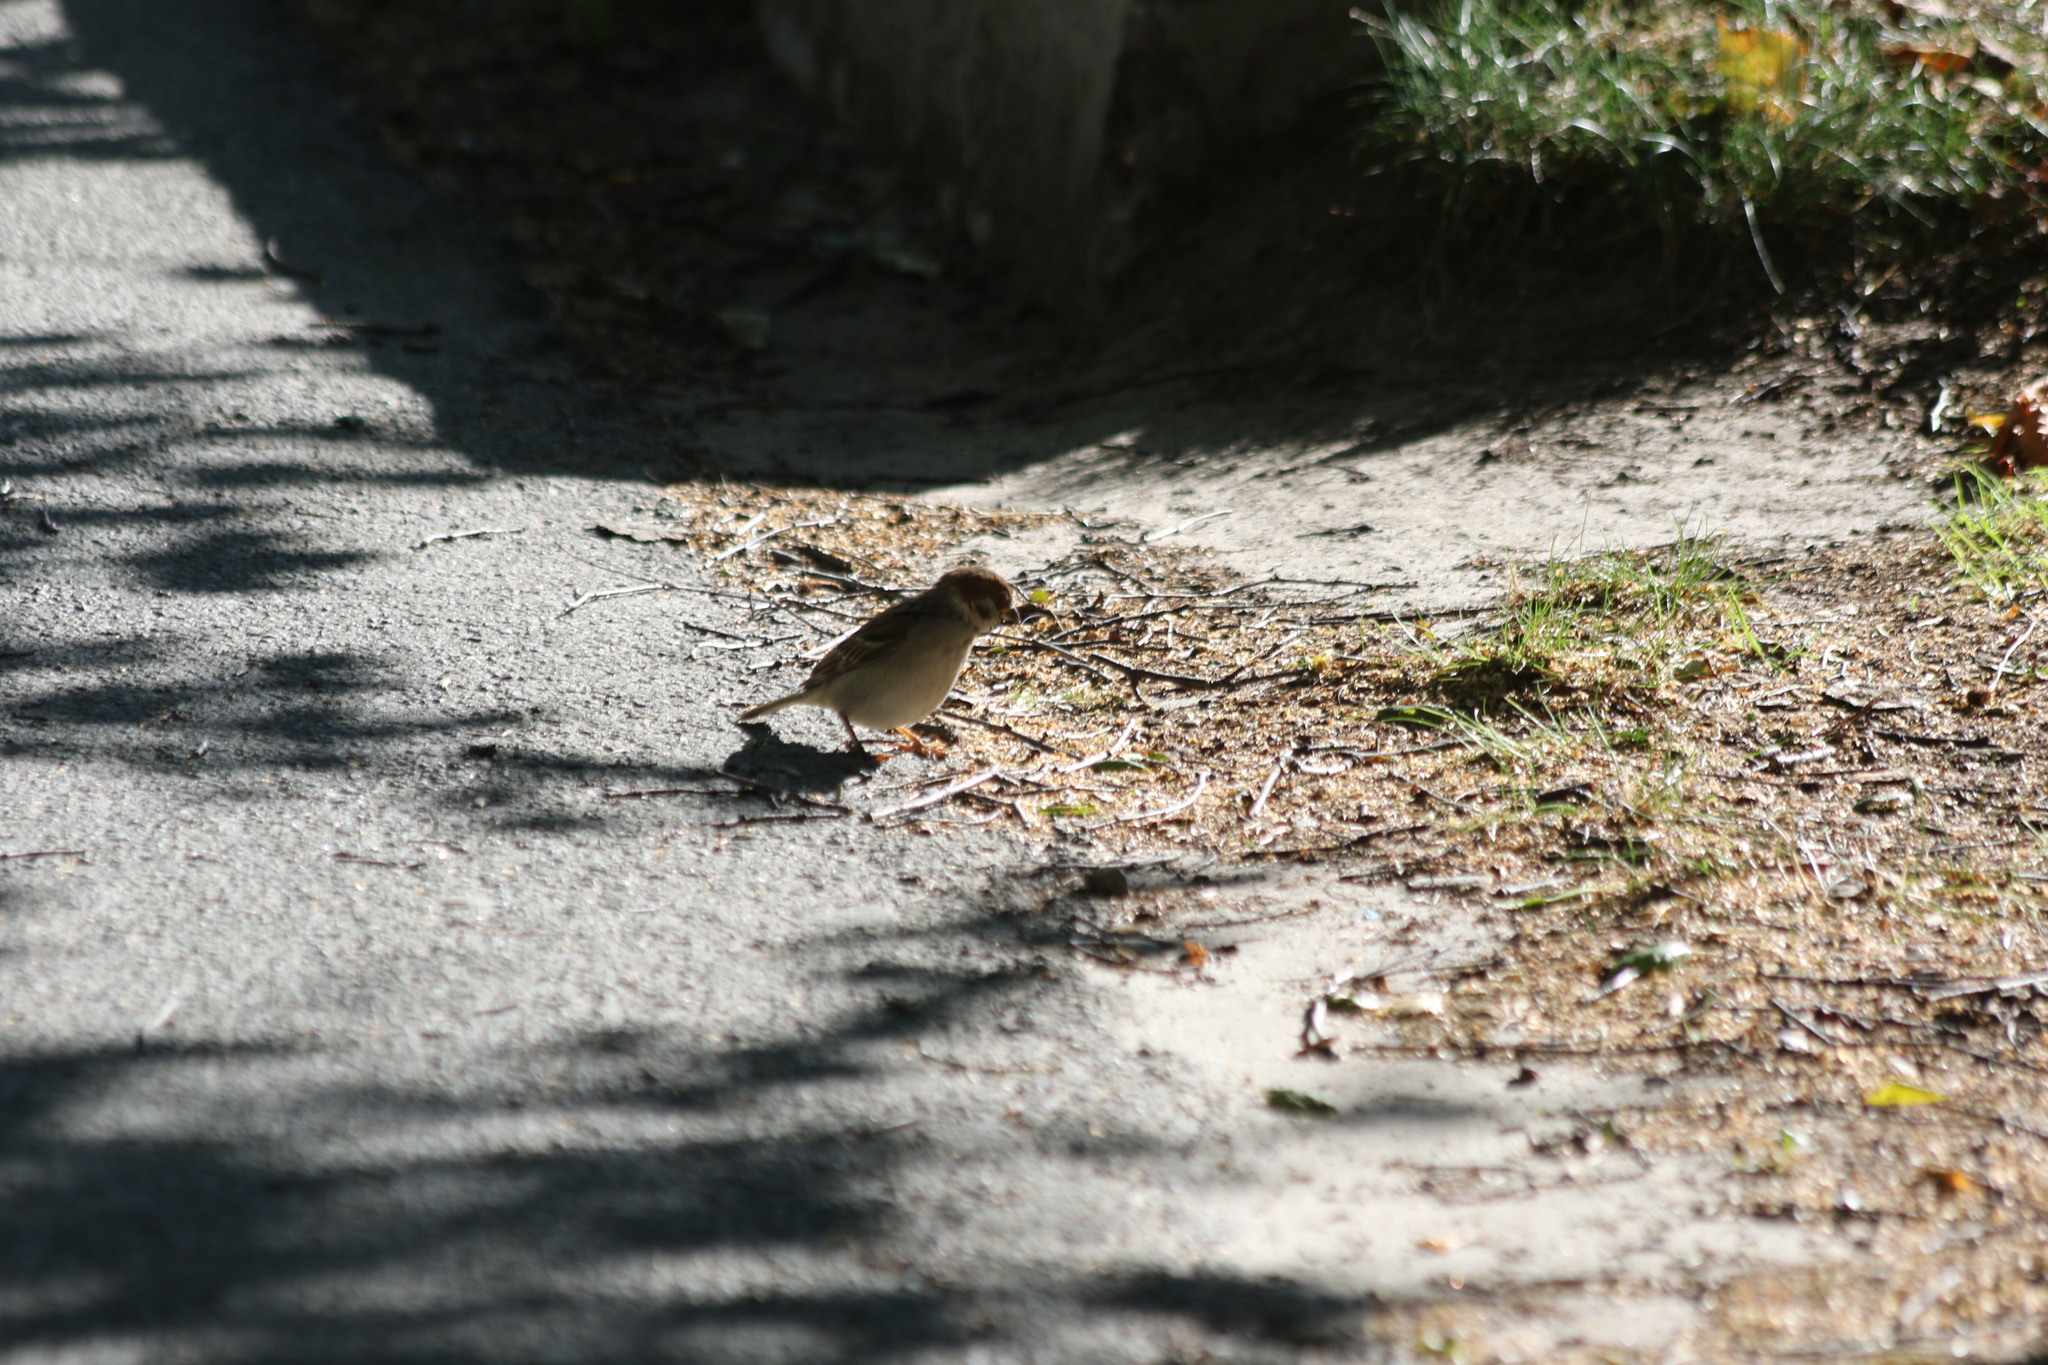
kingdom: Animalia
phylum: Chordata
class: Aves
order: Passeriformes
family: Passeridae
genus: Passer
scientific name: Passer montanus
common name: Eurasian tree sparrow
